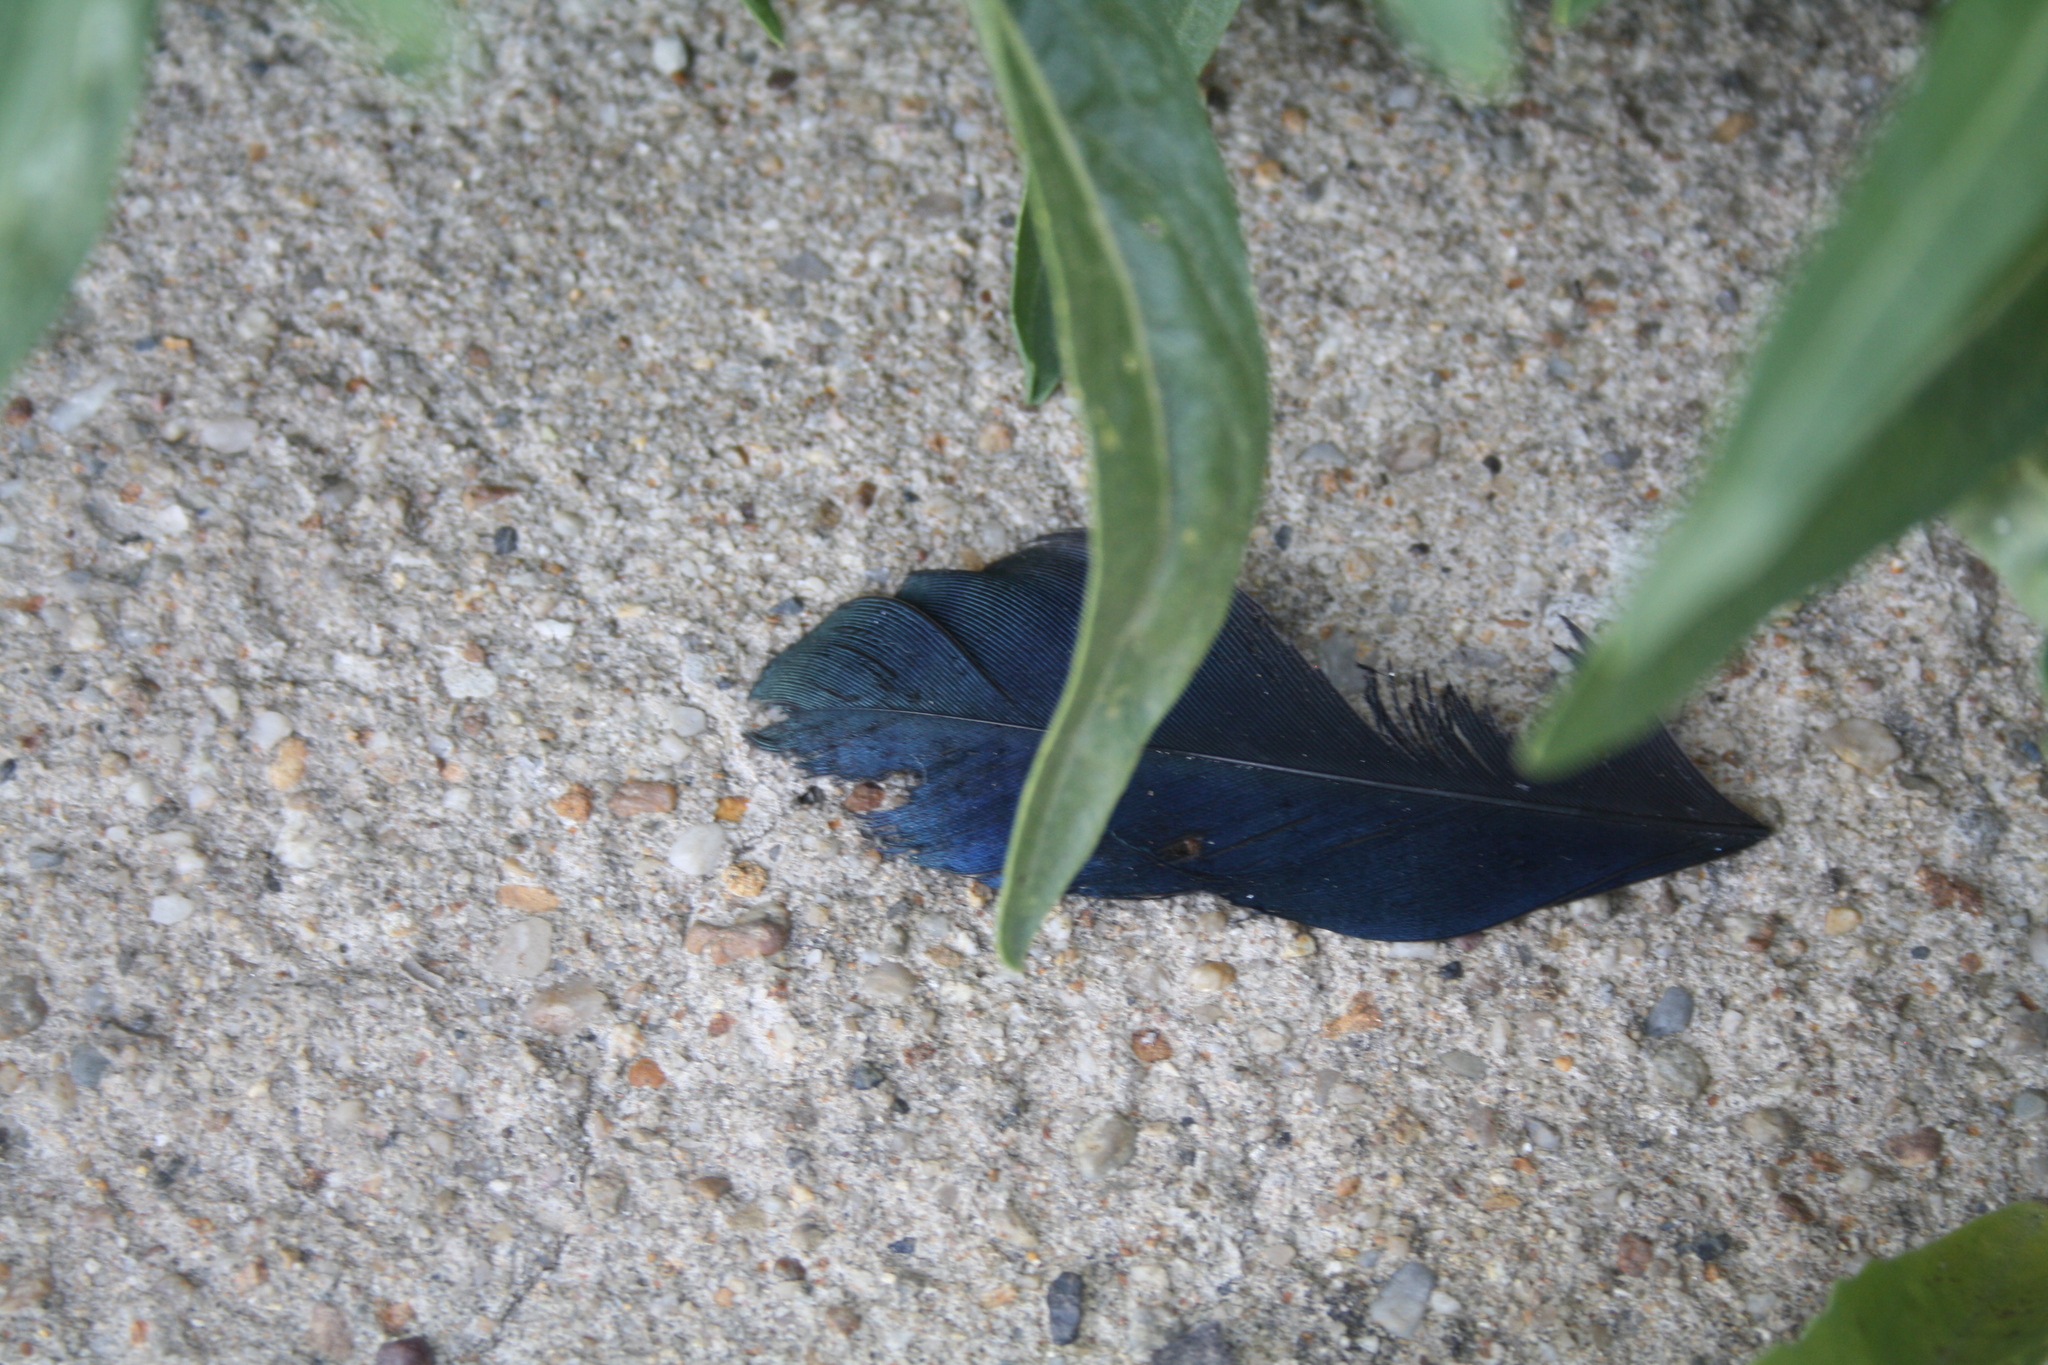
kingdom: Animalia
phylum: Chordata
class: Aves
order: Passeriformes
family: Corvidae
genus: Pica
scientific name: Pica pica
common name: Eurasian magpie
